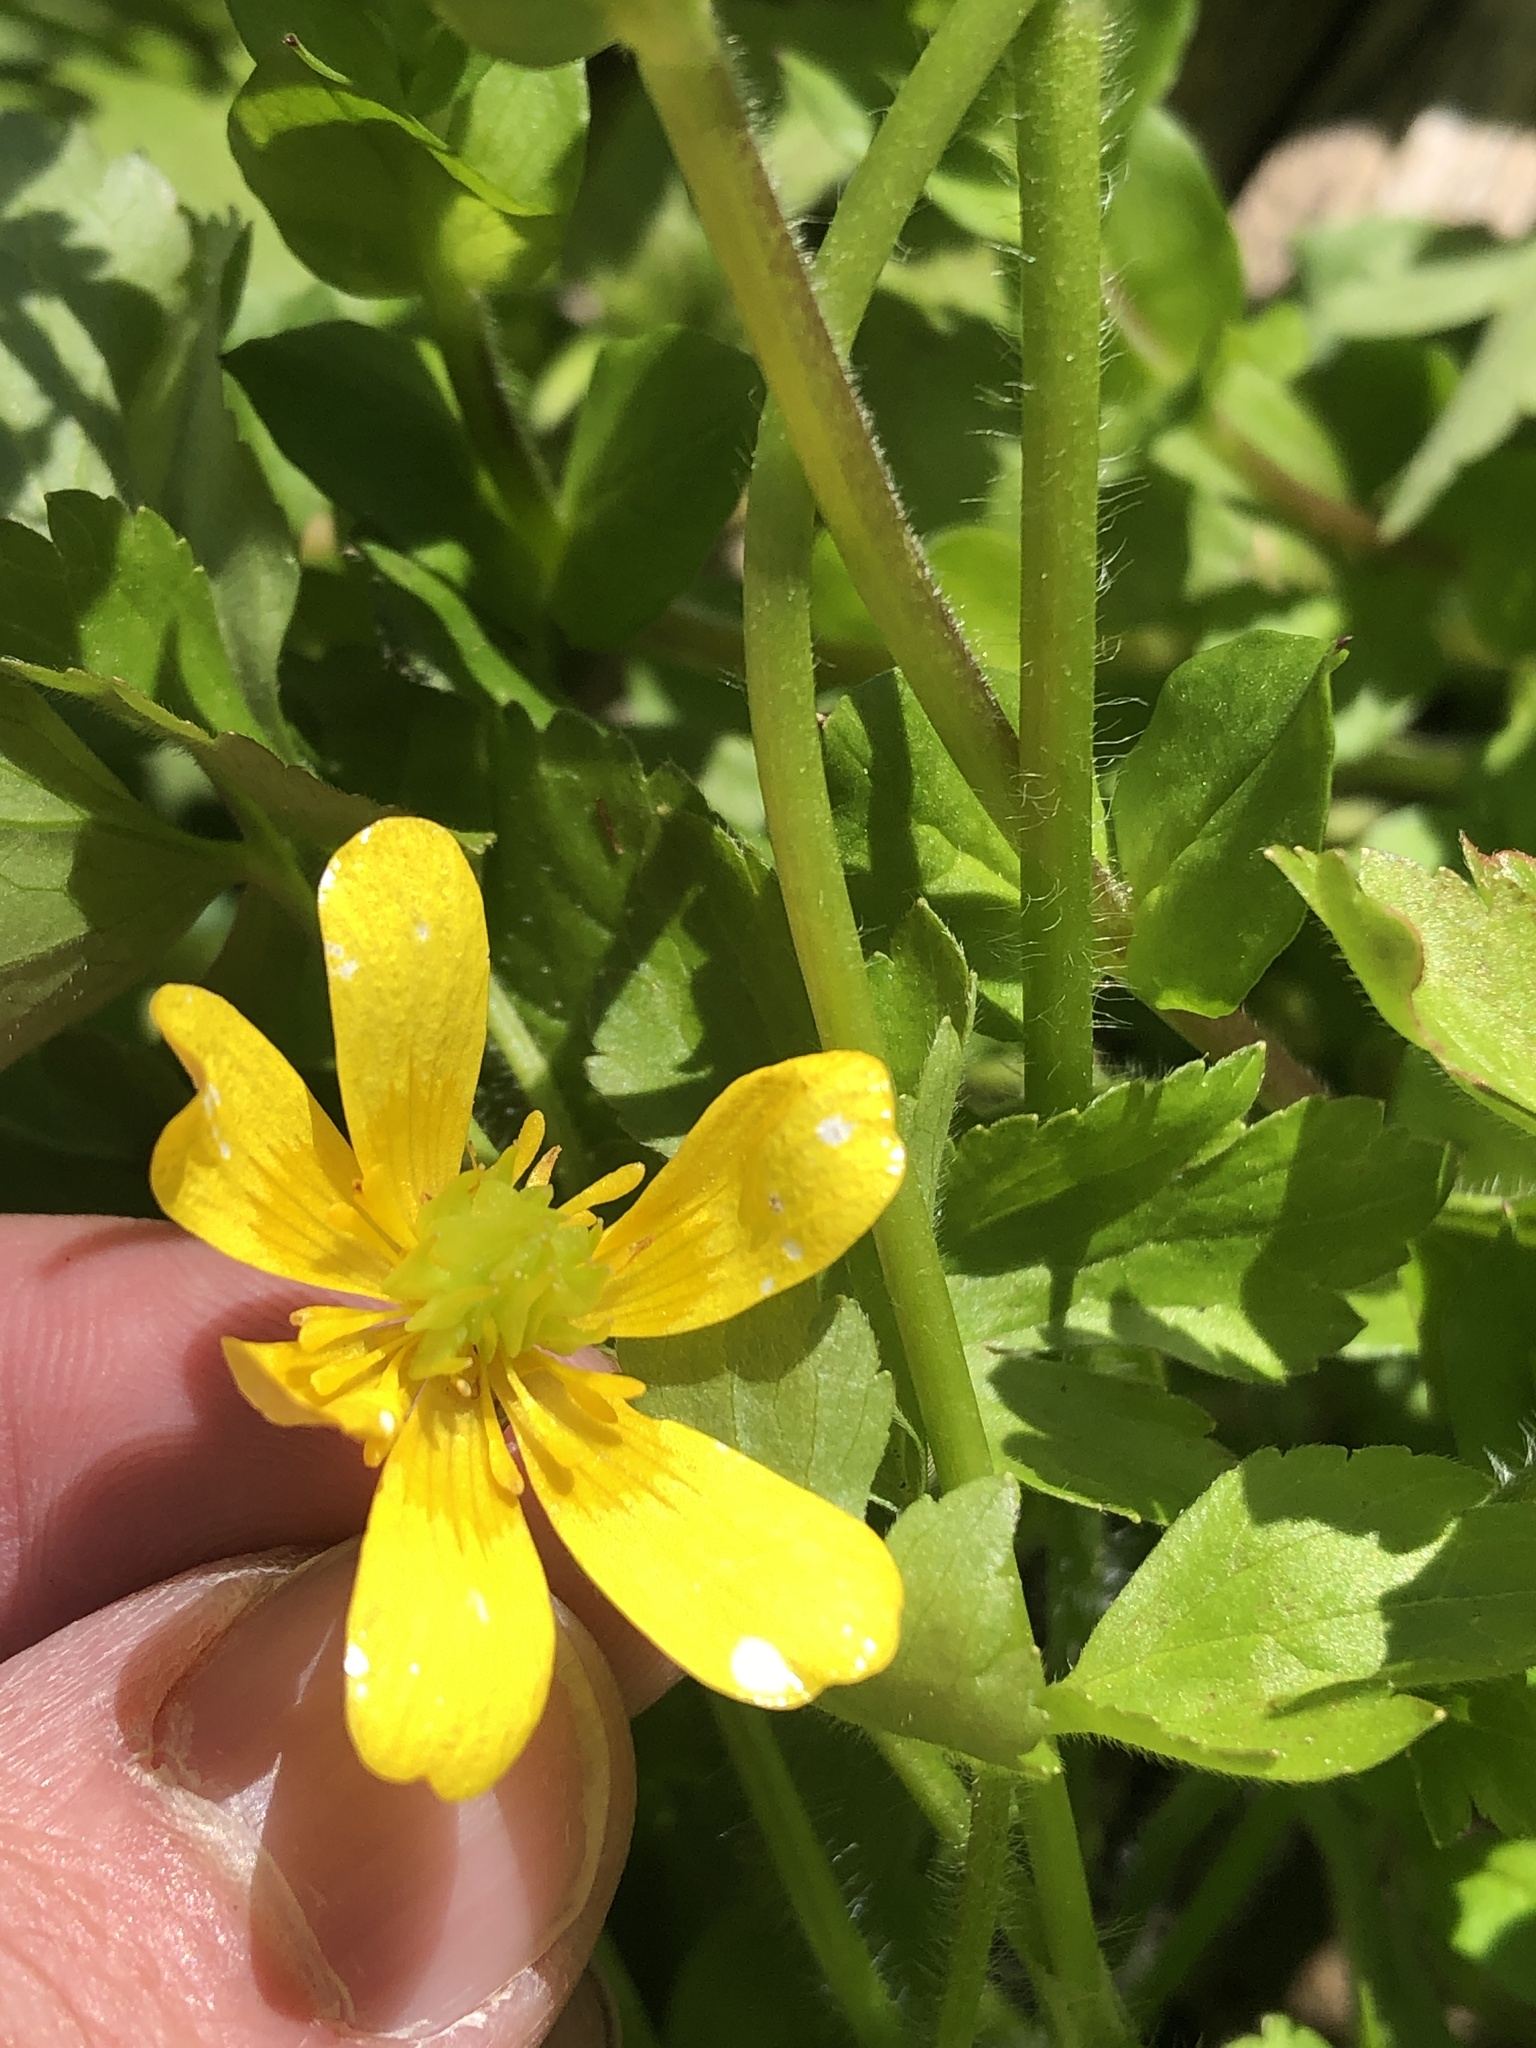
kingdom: Plantae
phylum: Tracheophyta
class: Magnoliopsida
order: Ranunculales
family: Ranunculaceae
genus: Ranunculus
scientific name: Ranunculus fascicularis
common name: Early buttercup
